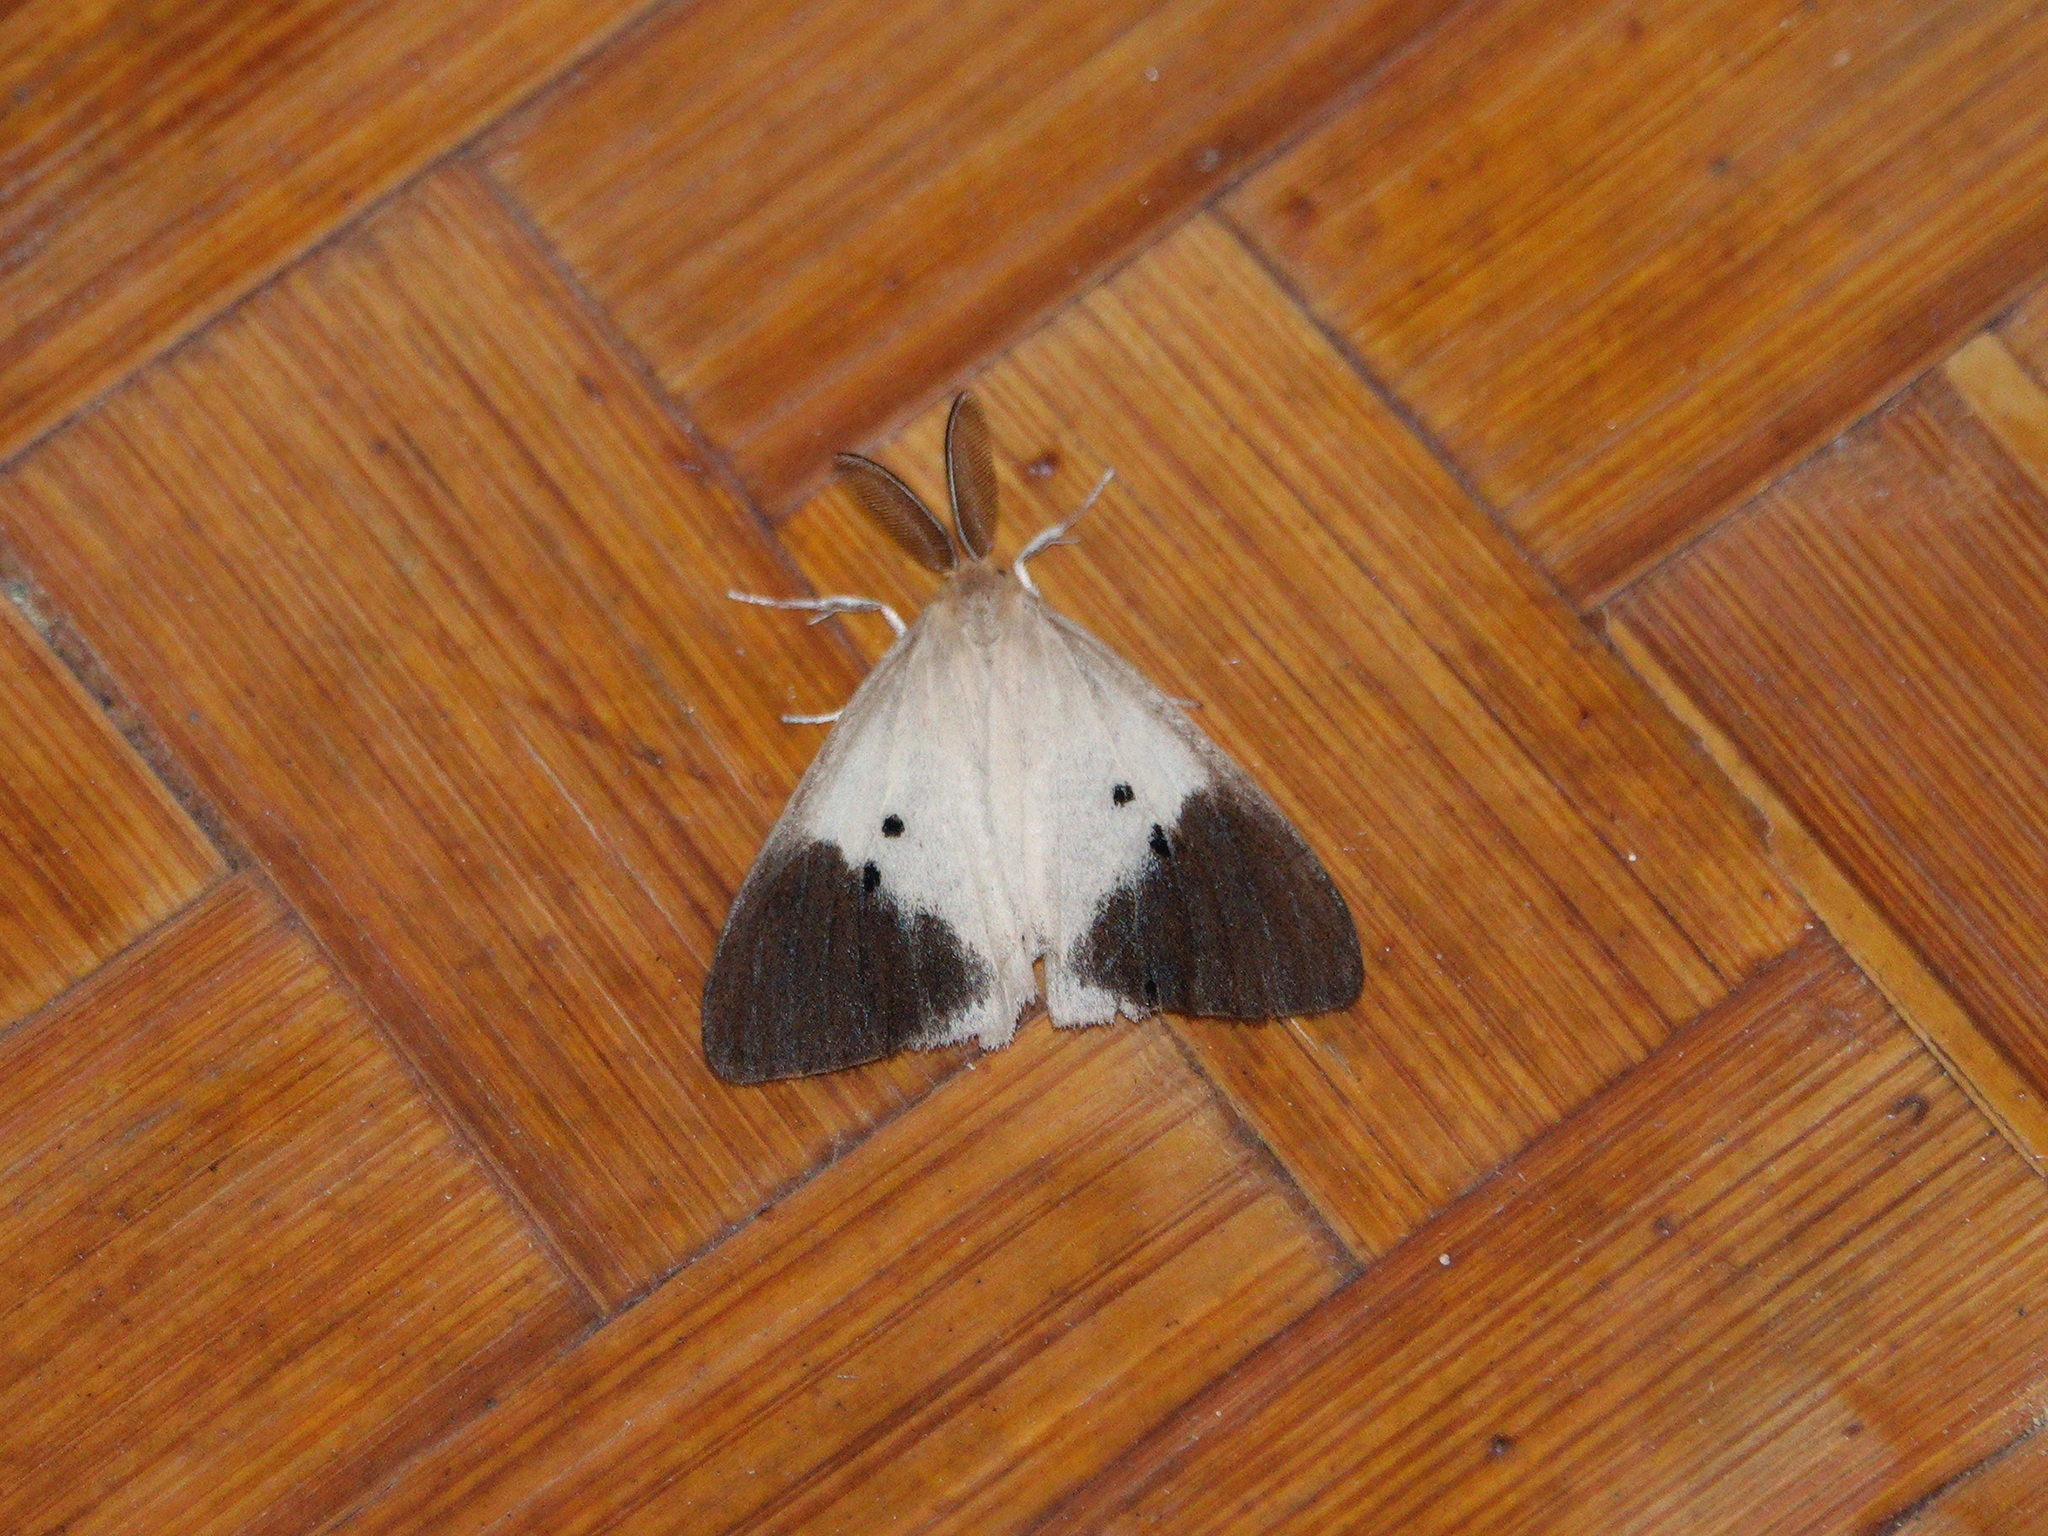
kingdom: Animalia
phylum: Arthropoda
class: Insecta
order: Lepidoptera
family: Erebidae
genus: Pantana
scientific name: Pantana terminata
